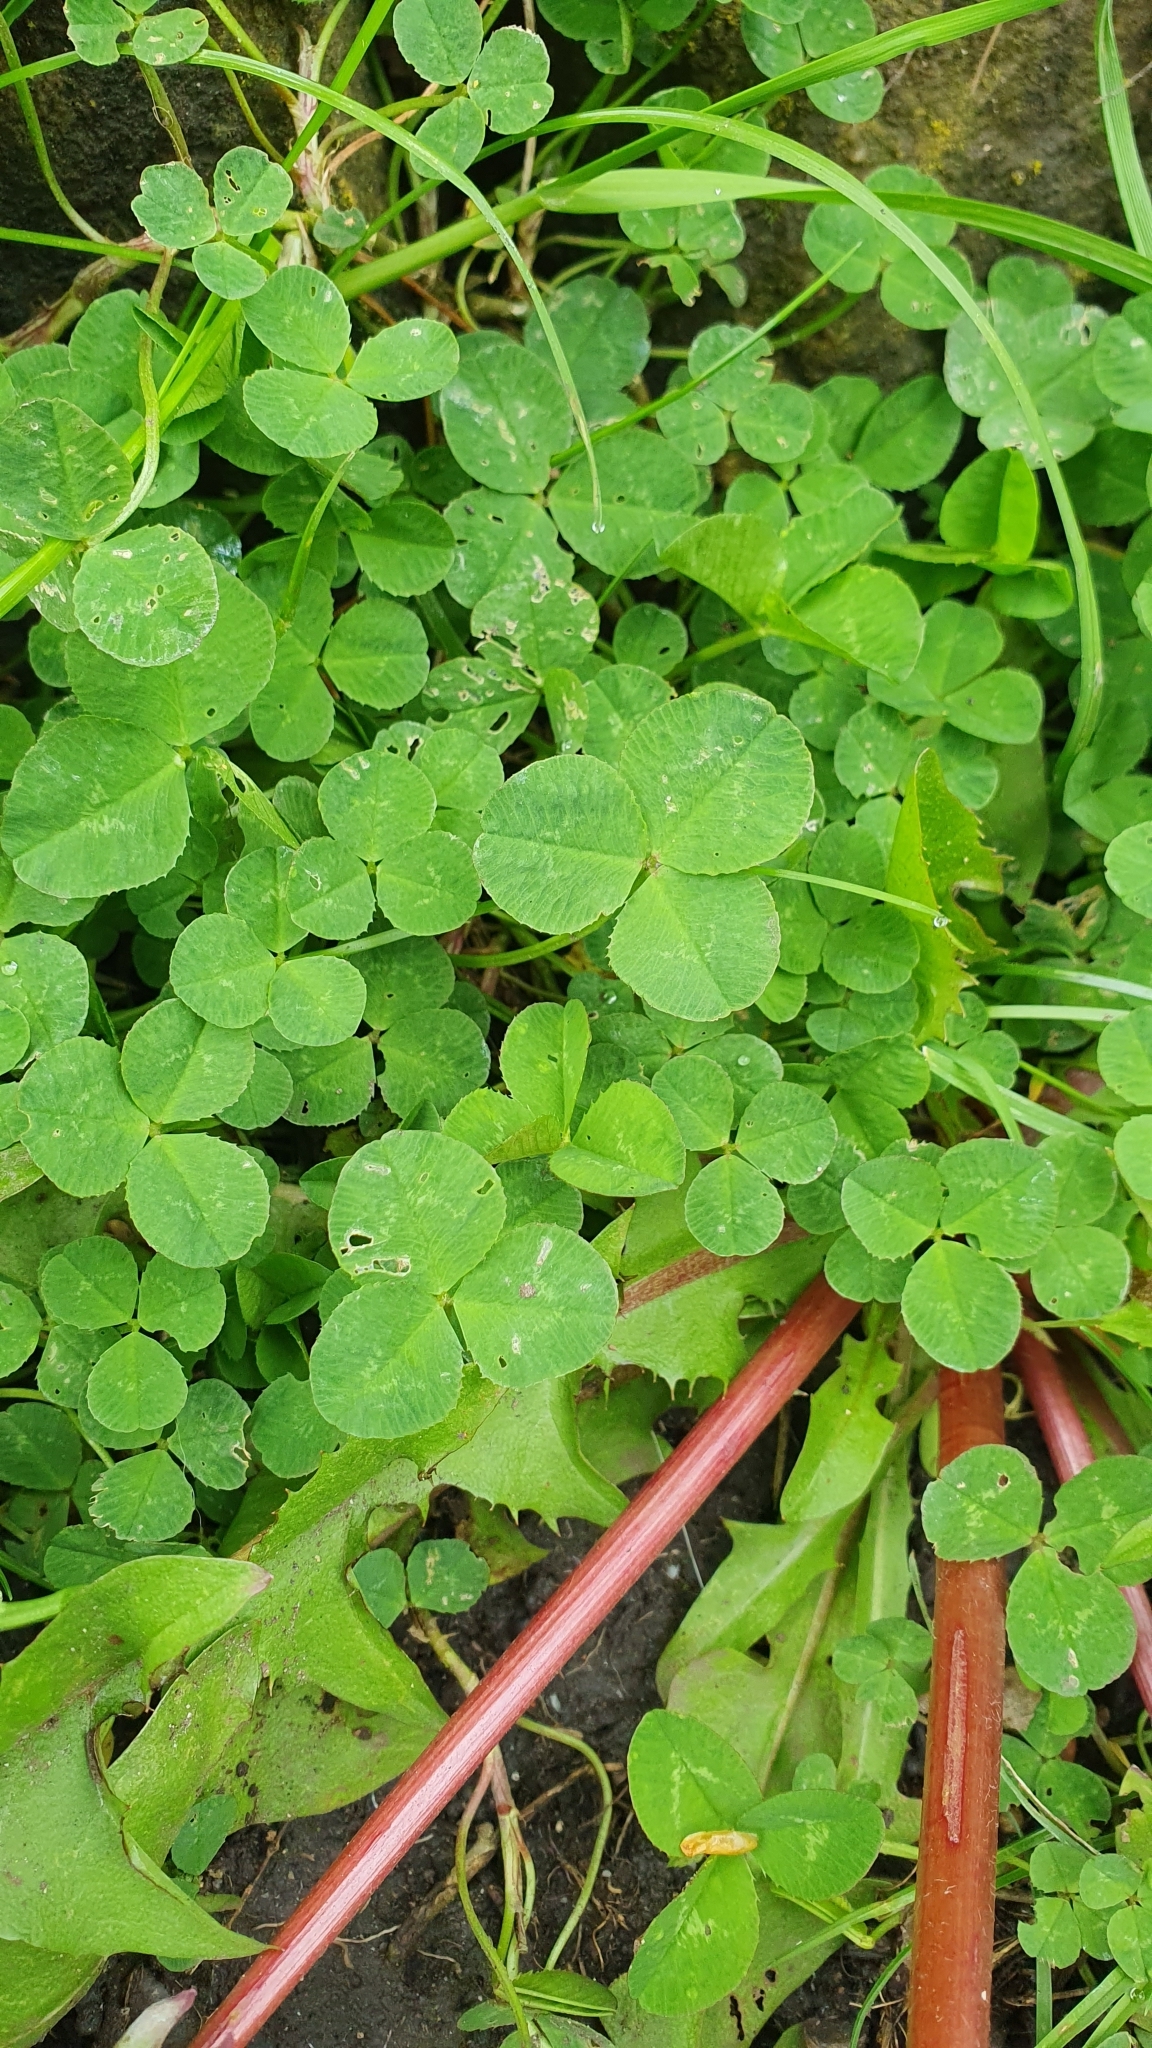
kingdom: Plantae
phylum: Tracheophyta
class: Magnoliopsida
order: Fabales
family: Fabaceae
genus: Trifolium
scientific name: Trifolium repens
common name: White clover
